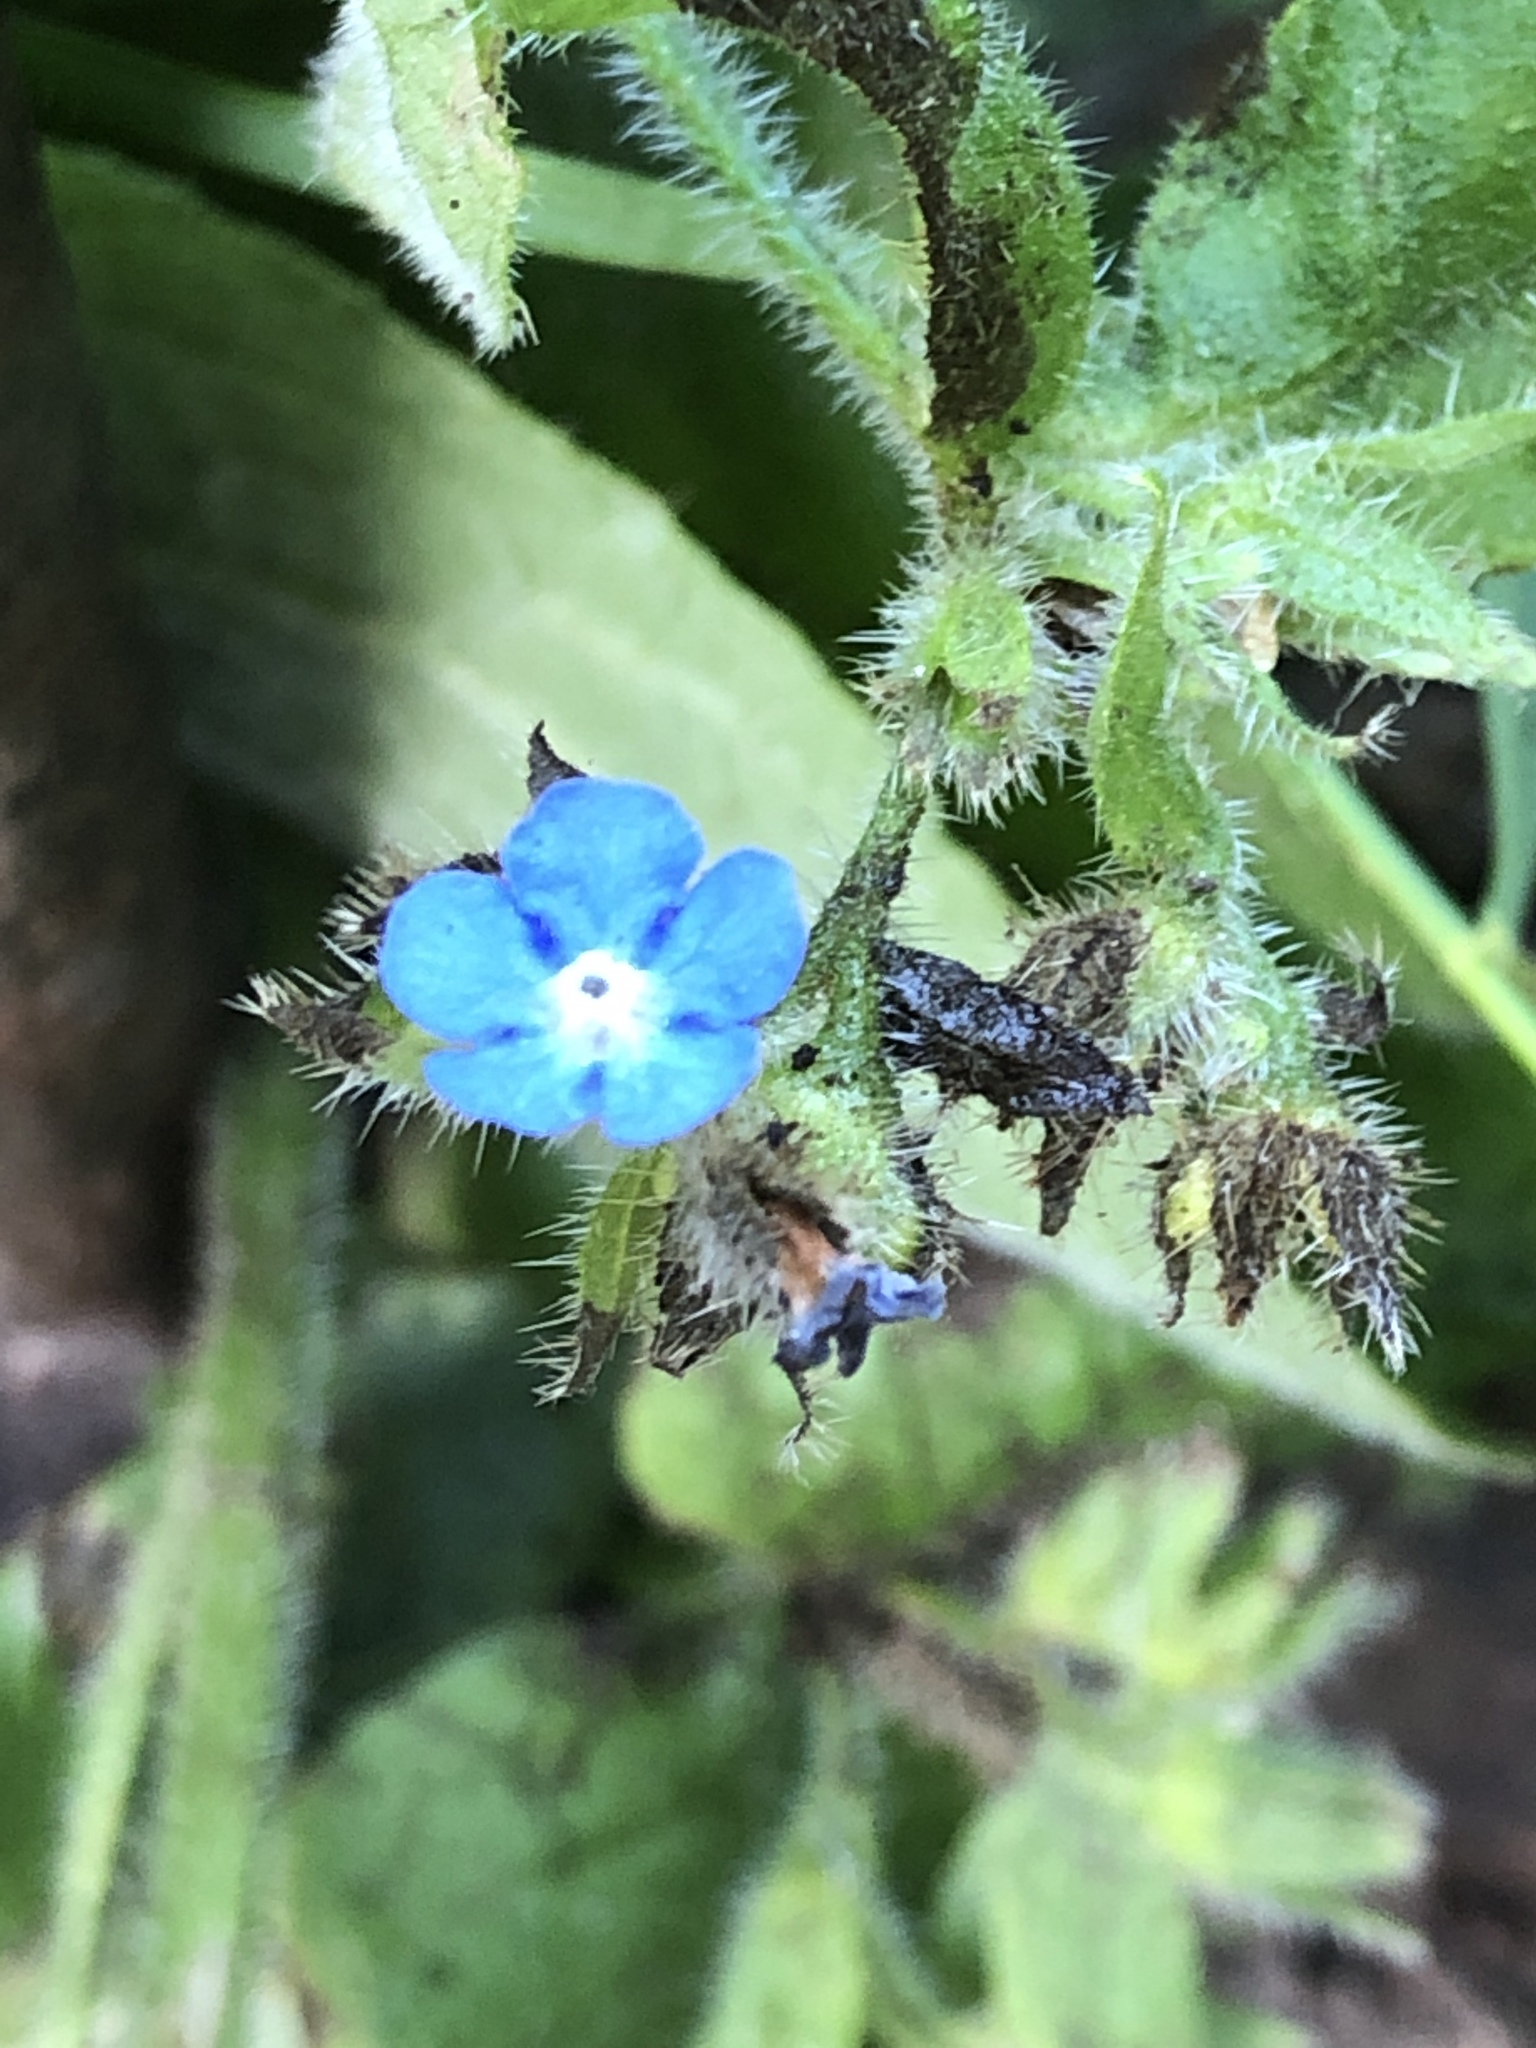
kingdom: Plantae
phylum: Tracheophyta
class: Magnoliopsida
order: Boraginales
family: Boraginaceae
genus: Pentaglottis
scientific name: Pentaglottis sempervirens
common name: Green alkanet
